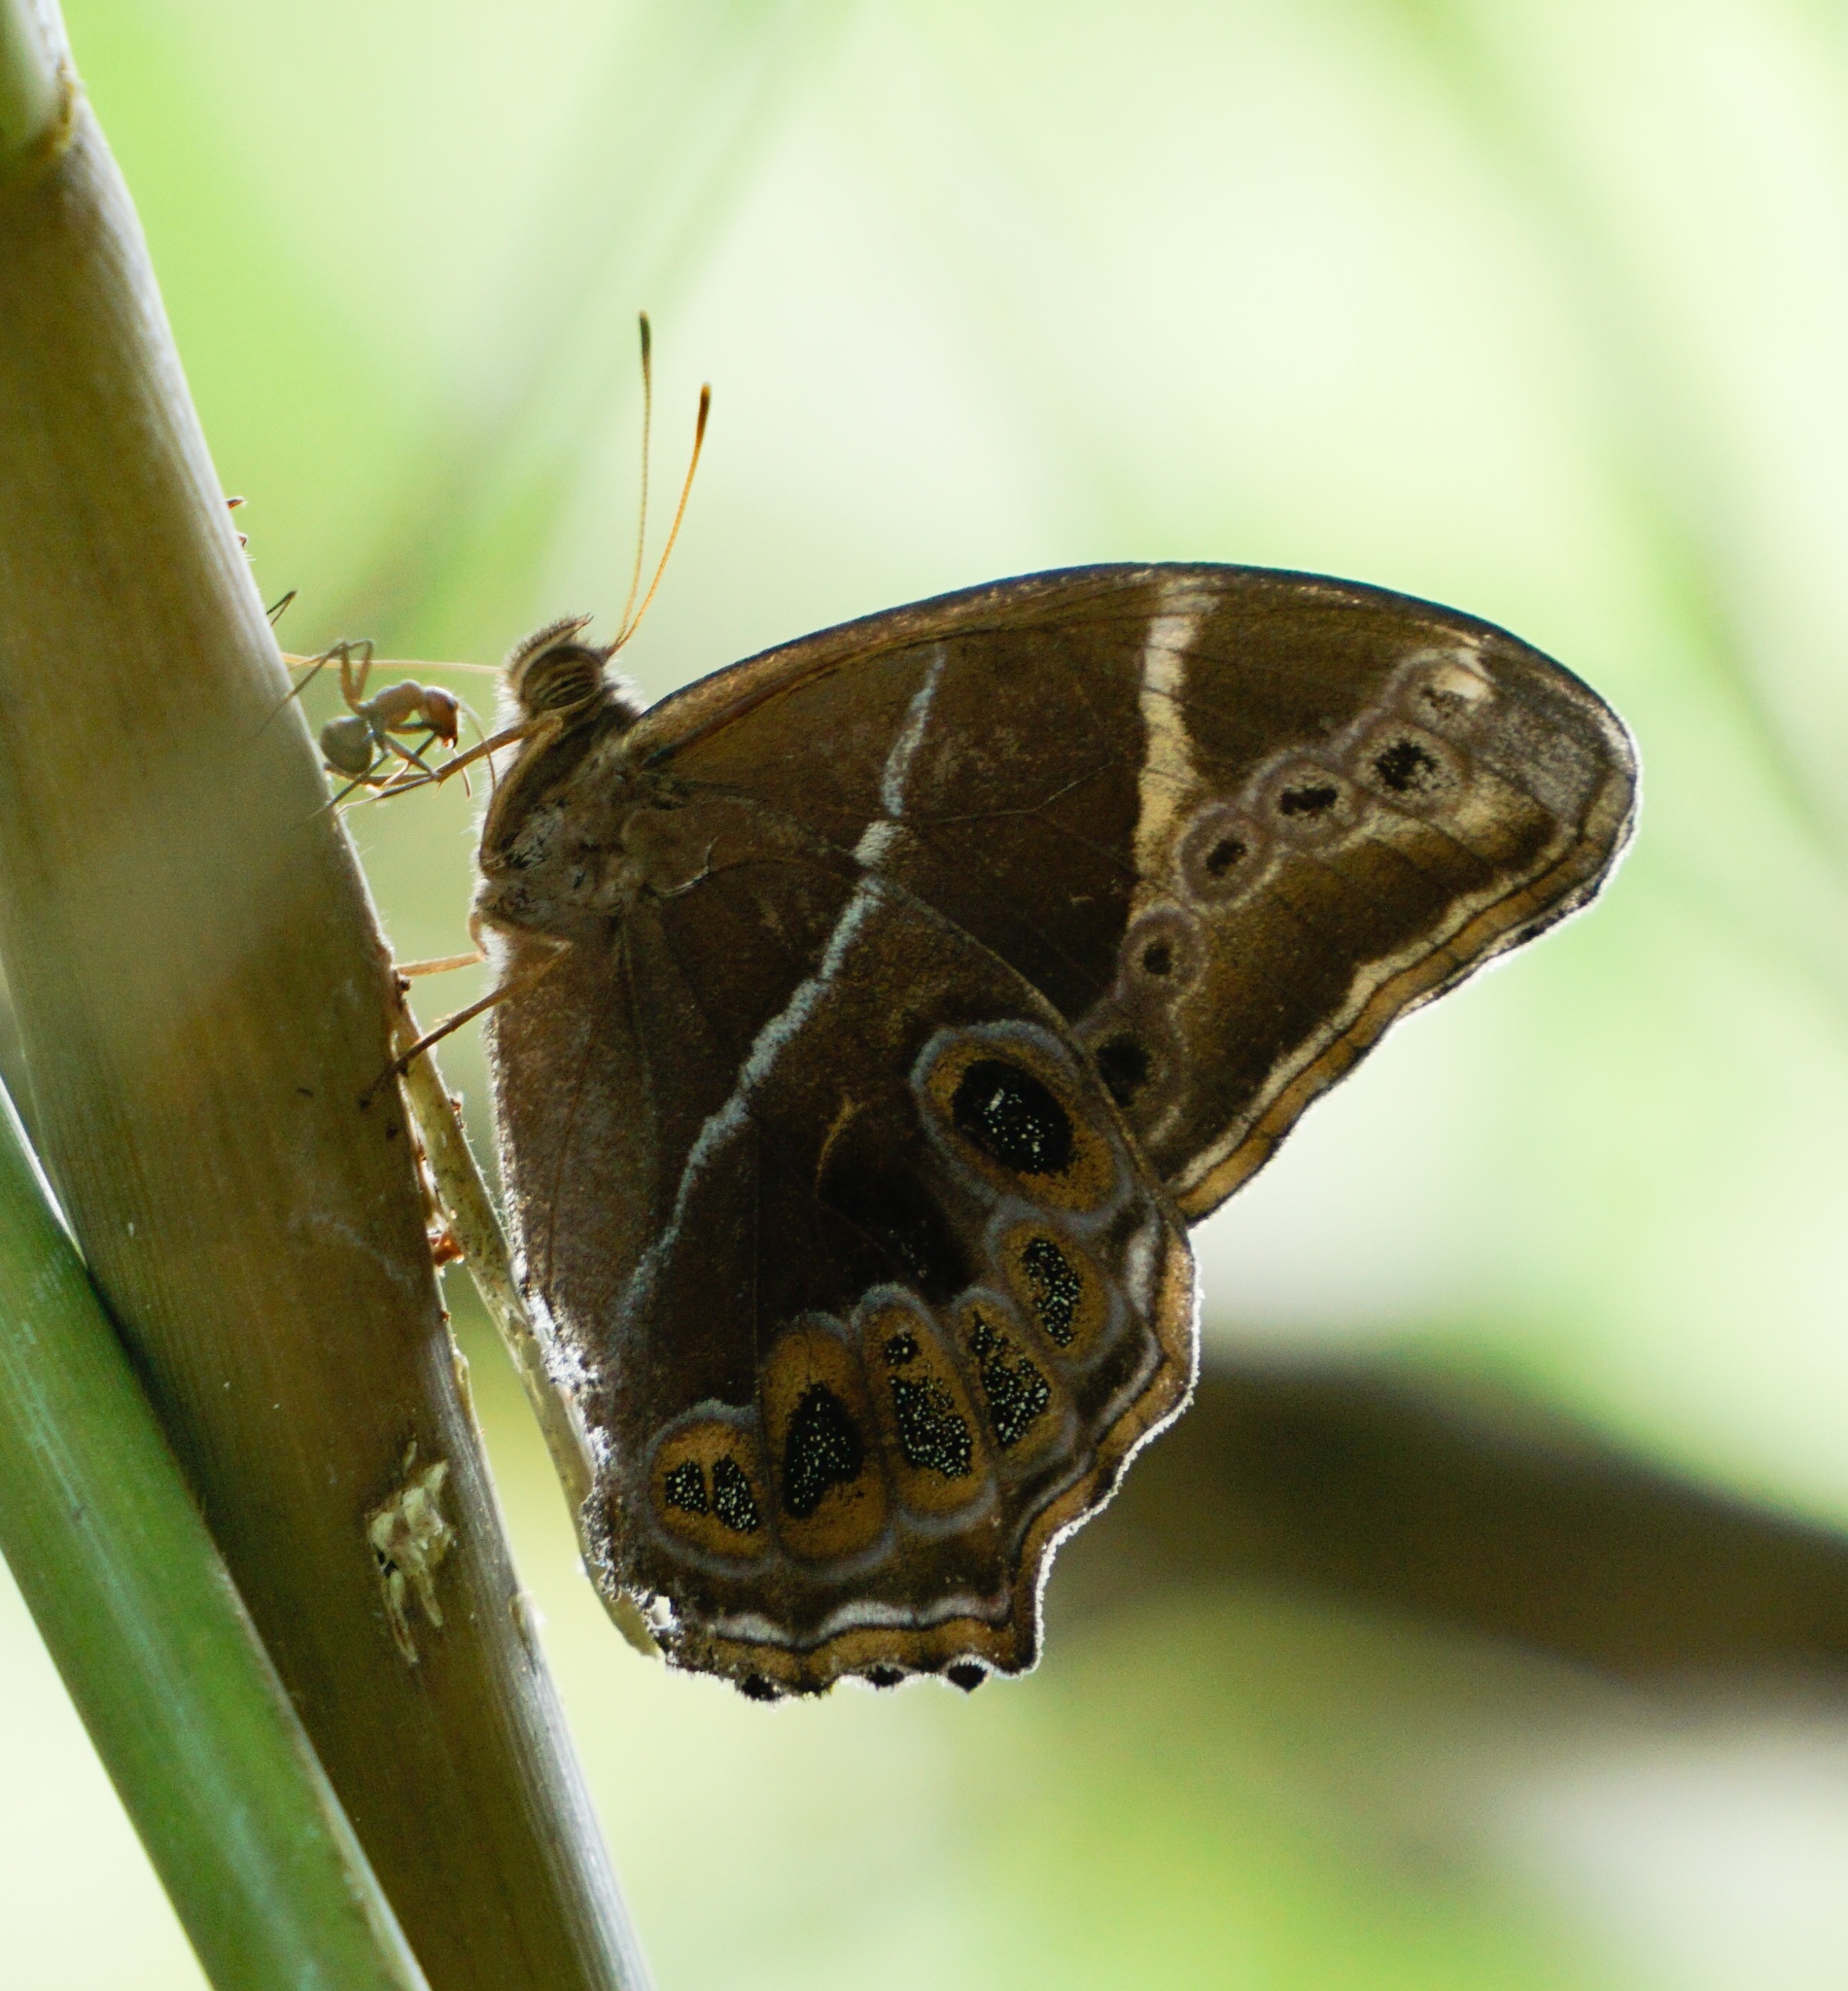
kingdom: Animalia
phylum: Arthropoda
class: Insecta
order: Lepidoptera
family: Nymphalidae
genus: Lethe
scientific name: Lethe europa
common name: Bamboo treebrown
